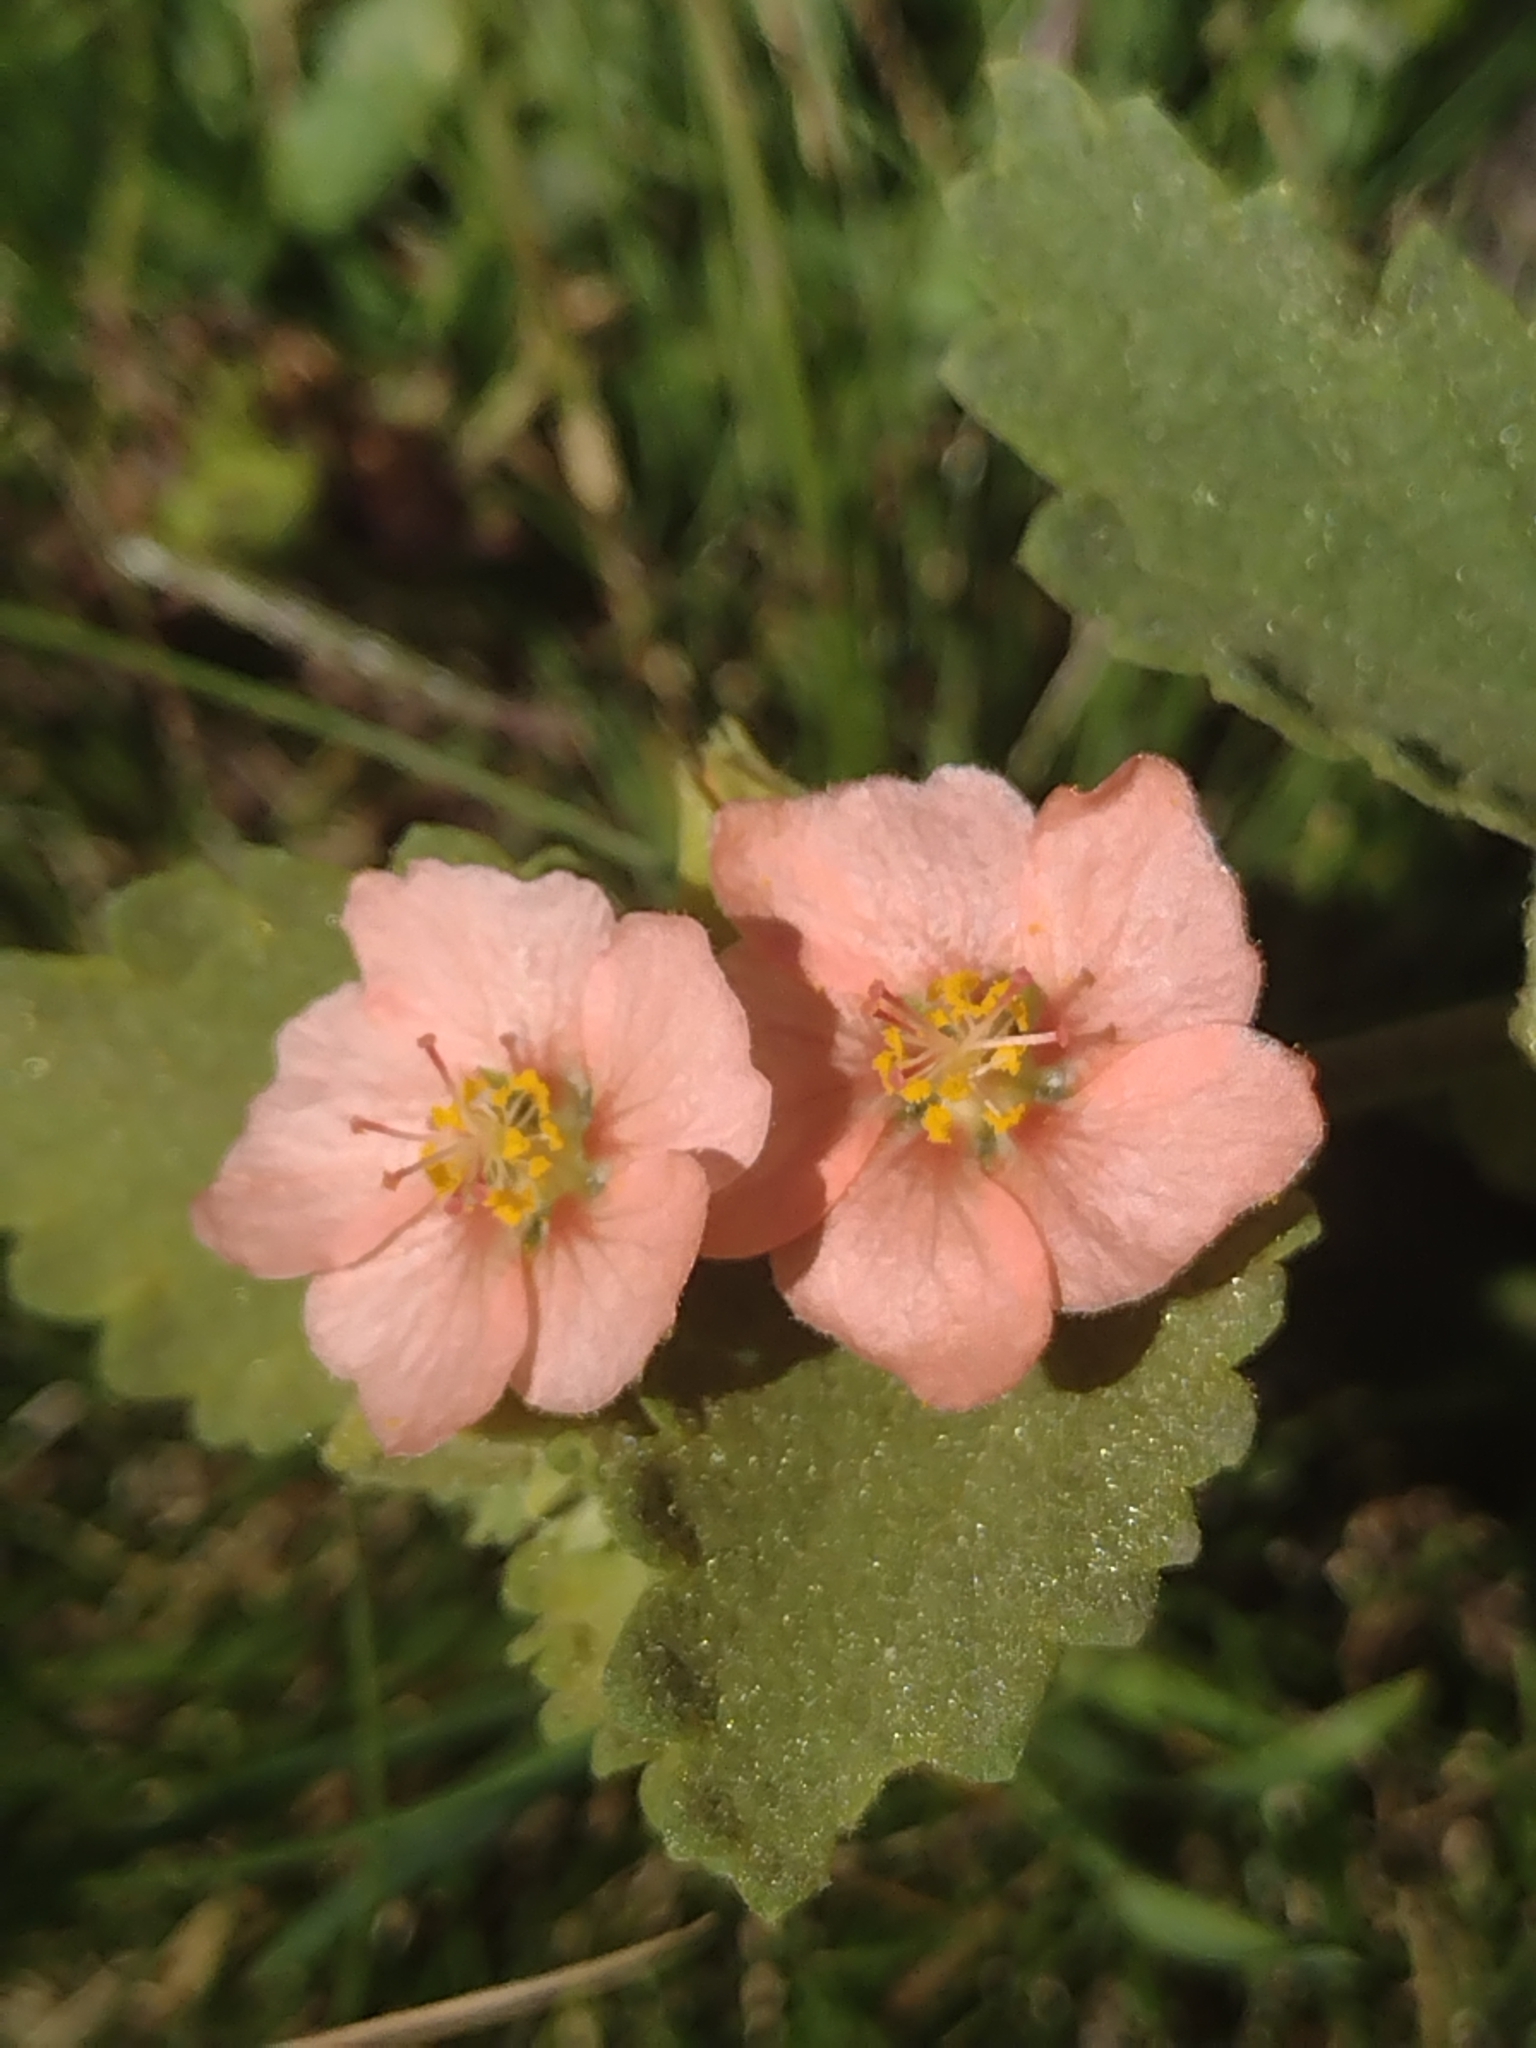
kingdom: Plantae
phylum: Tracheophyta
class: Magnoliopsida
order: Malvales
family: Malvaceae
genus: Krapovickasia
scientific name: Krapovickasia flavescens
